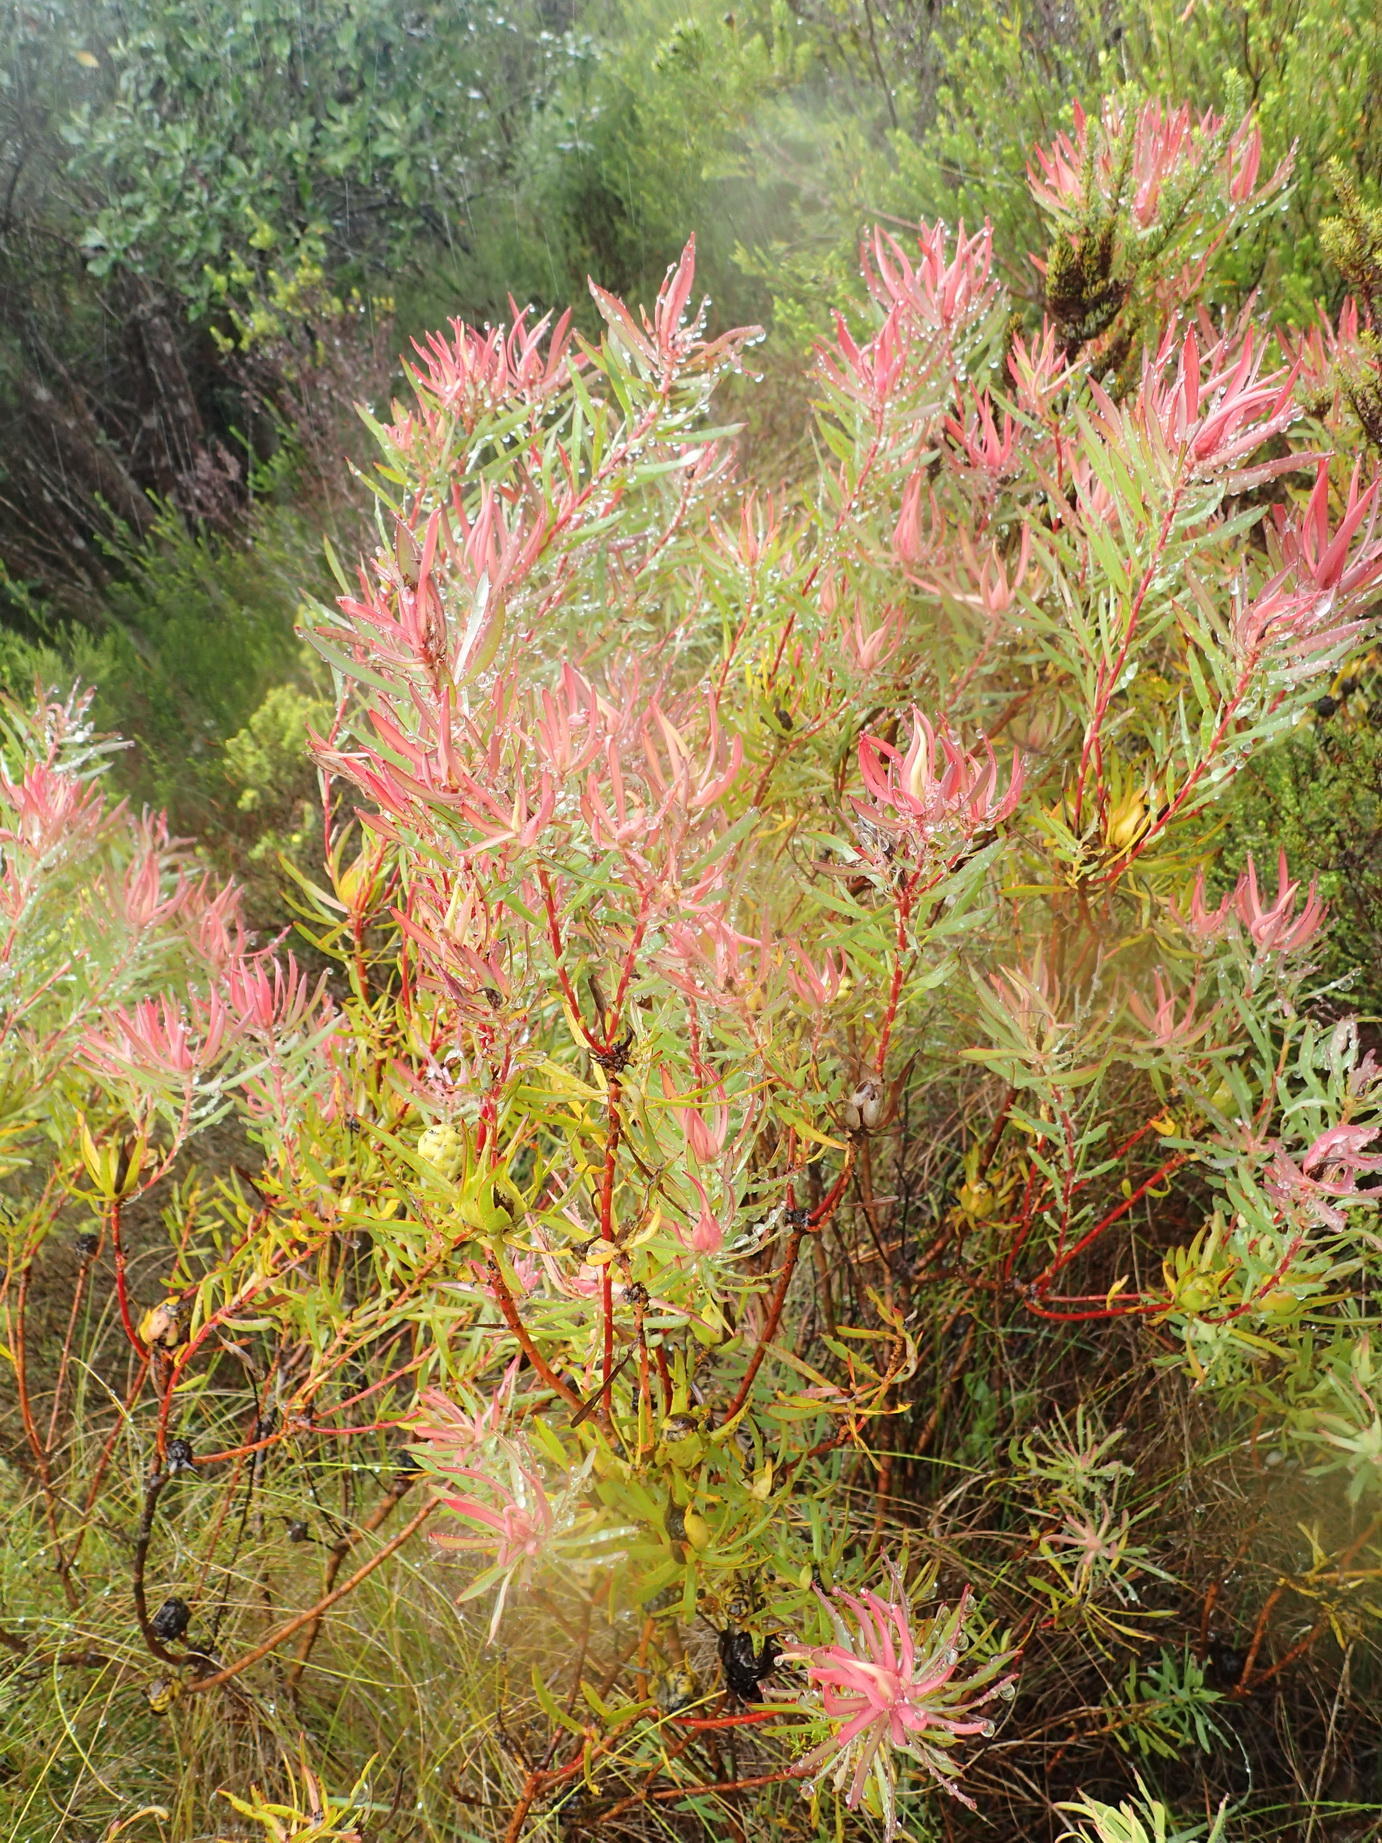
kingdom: Plantae
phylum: Tracheophyta
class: Magnoliopsida
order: Proteales
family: Proteaceae
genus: Leucadendron
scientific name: Leucadendron salignum
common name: Common sunshine conebush
